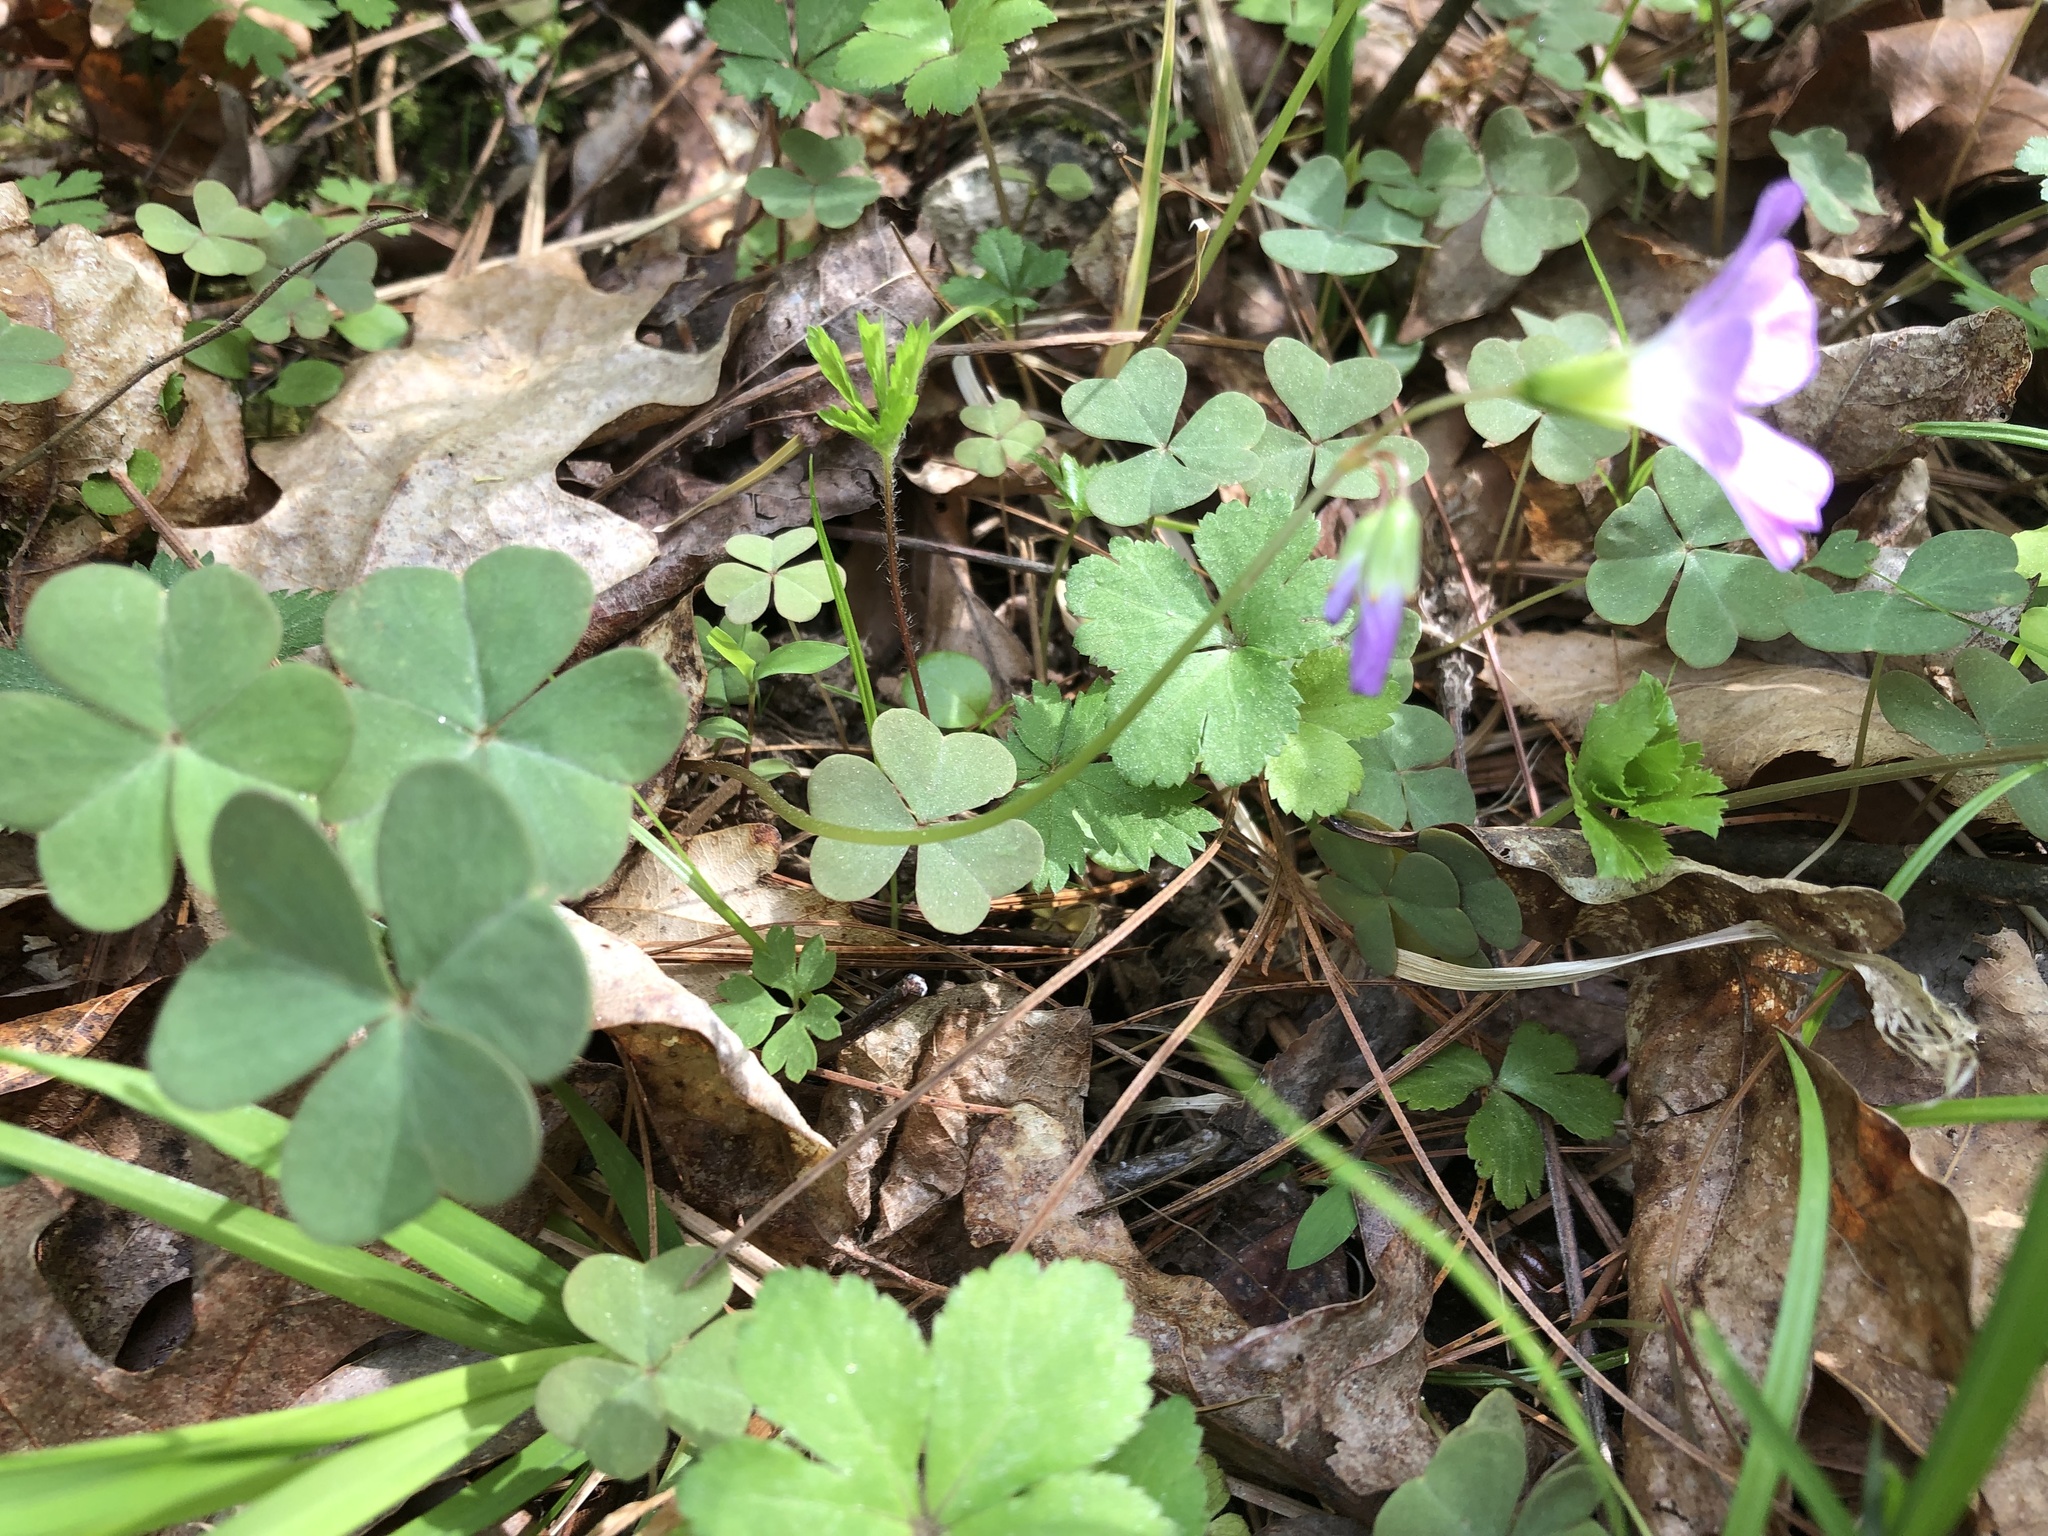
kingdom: Plantae
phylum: Tracheophyta
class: Magnoliopsida
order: Oxalidales
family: Oxalidaceae
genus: Oxalis
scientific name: Oxalis violacea
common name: Violet wood-sorrel
